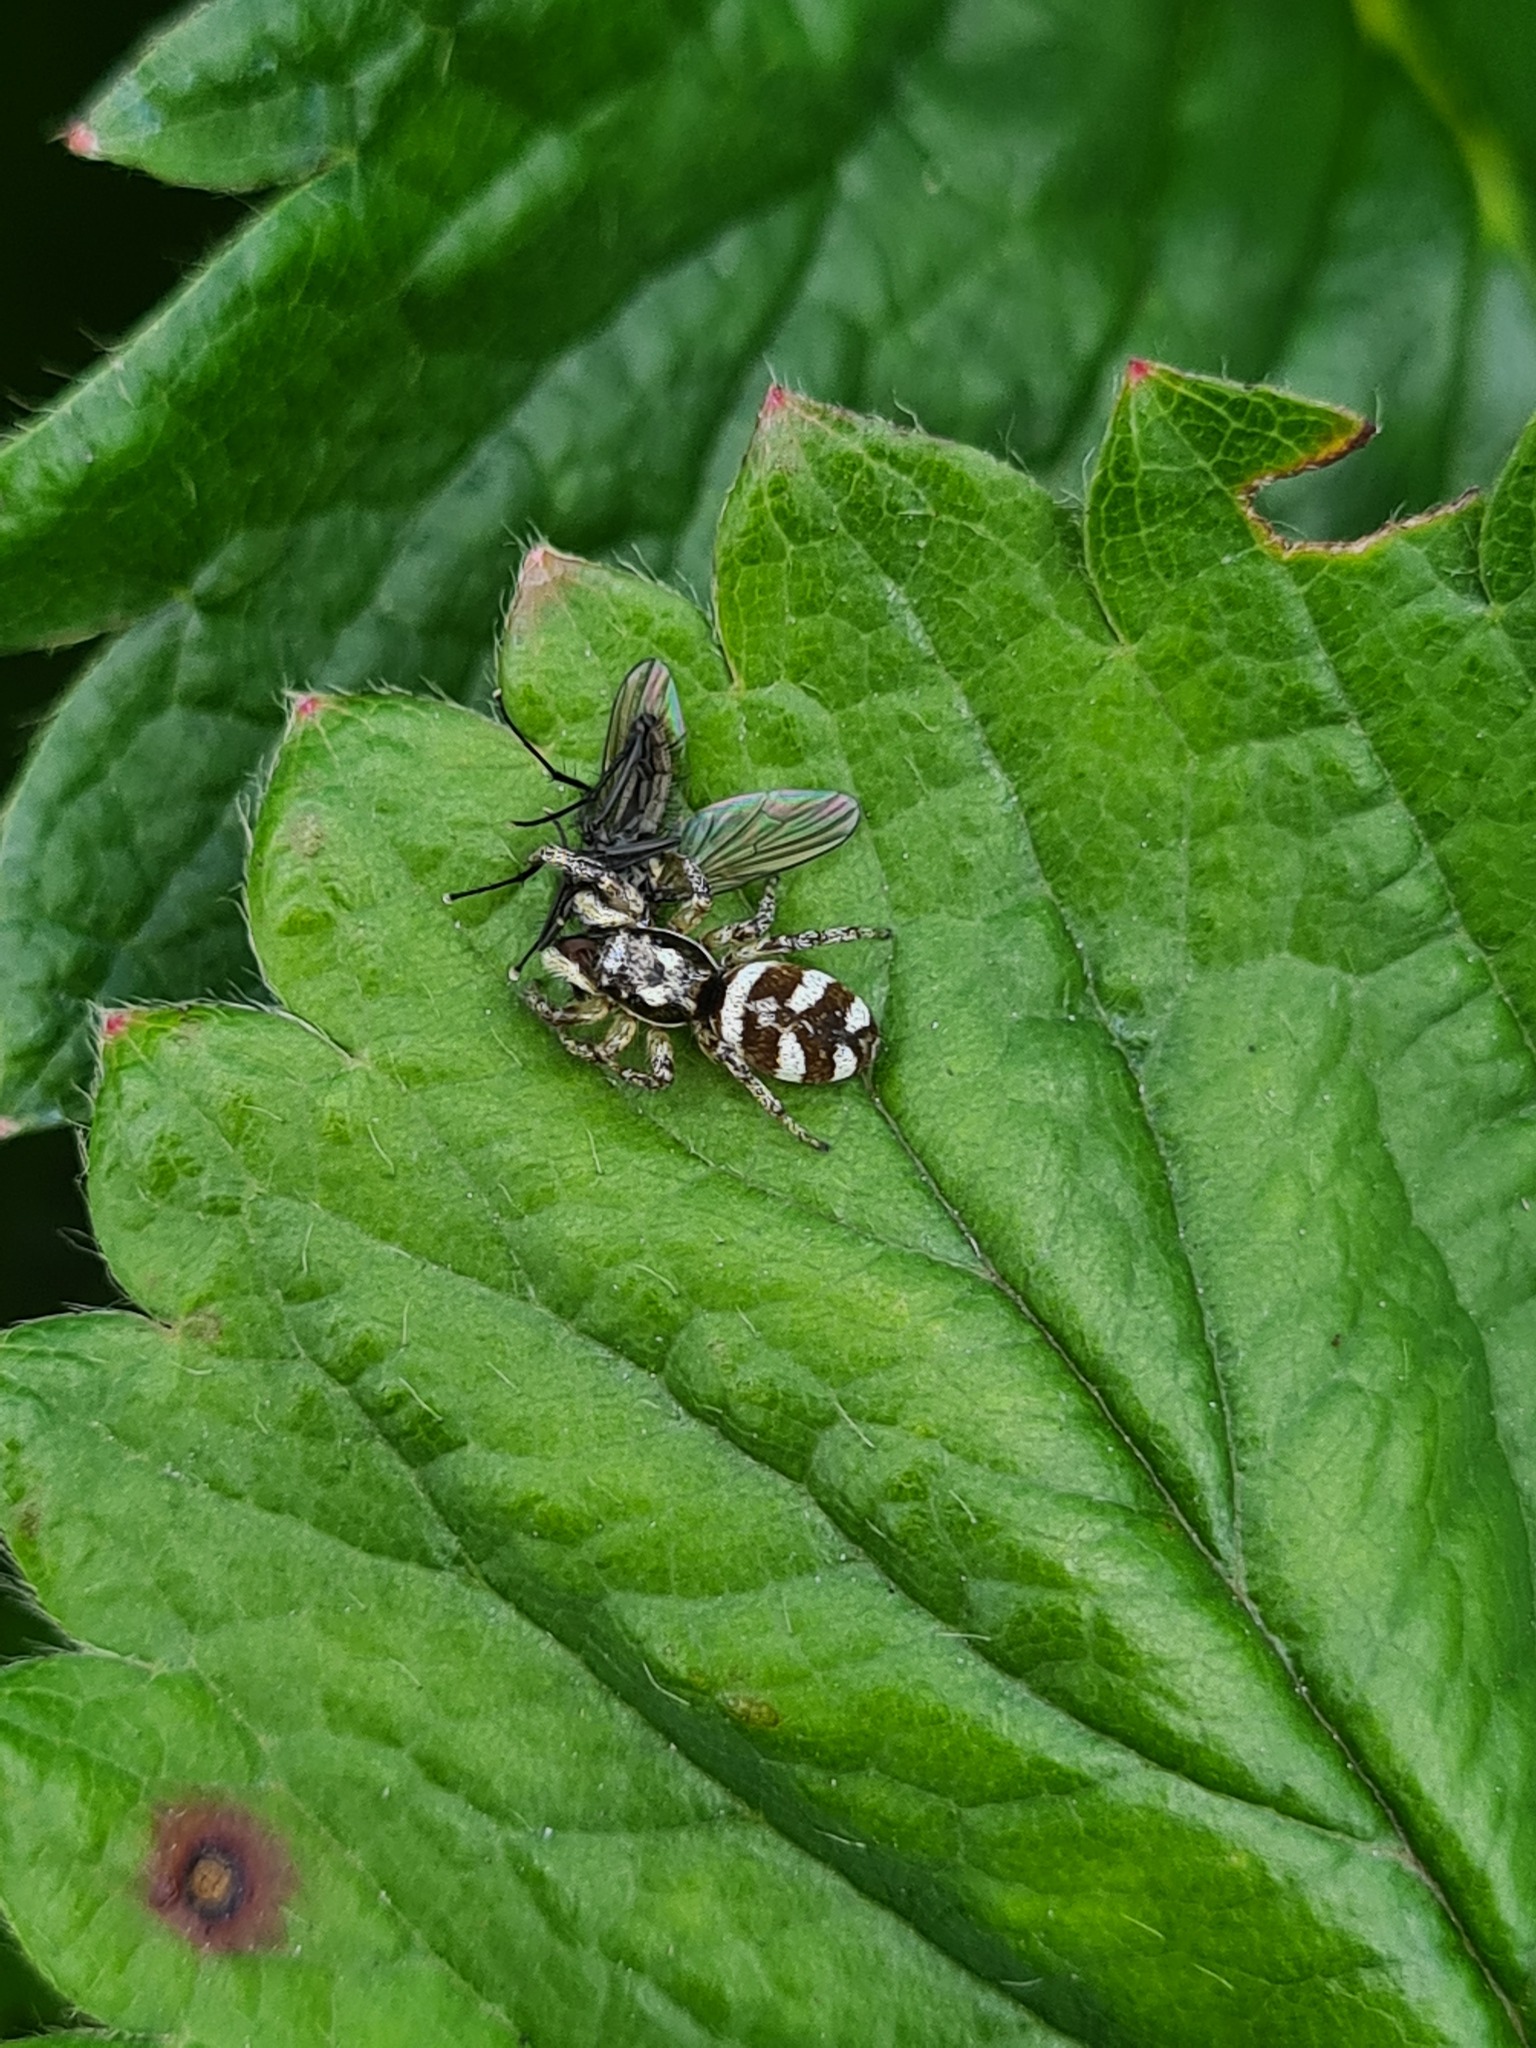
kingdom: Animalia
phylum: Arthropoda
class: Arachnida
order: Araneae
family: Salticidae
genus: Salticus
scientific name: Salticus scenicus
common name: Zebra jumper
